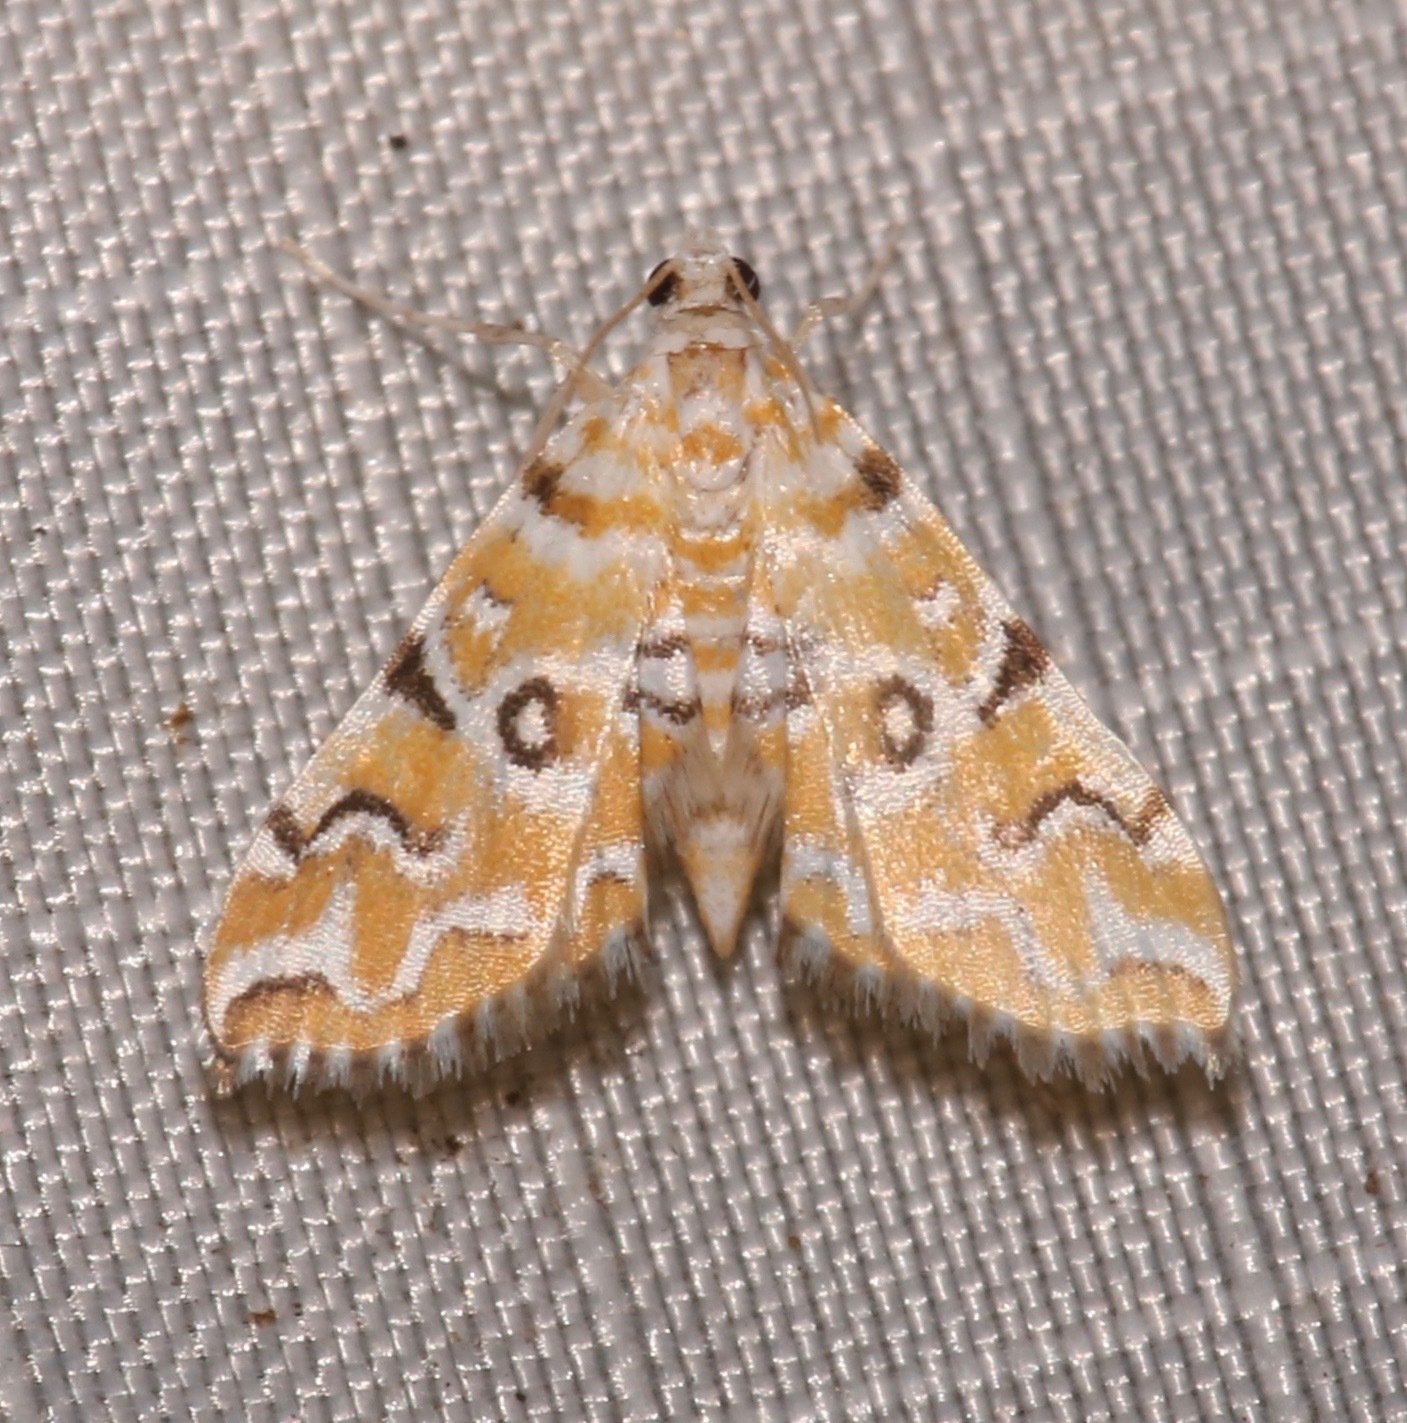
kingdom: Animalia
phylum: Arthropoda
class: Insecta
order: Lepidoptera
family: Crambidae
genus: Elophila
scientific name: Elophila icciusalis
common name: Pondside pyralid moth
